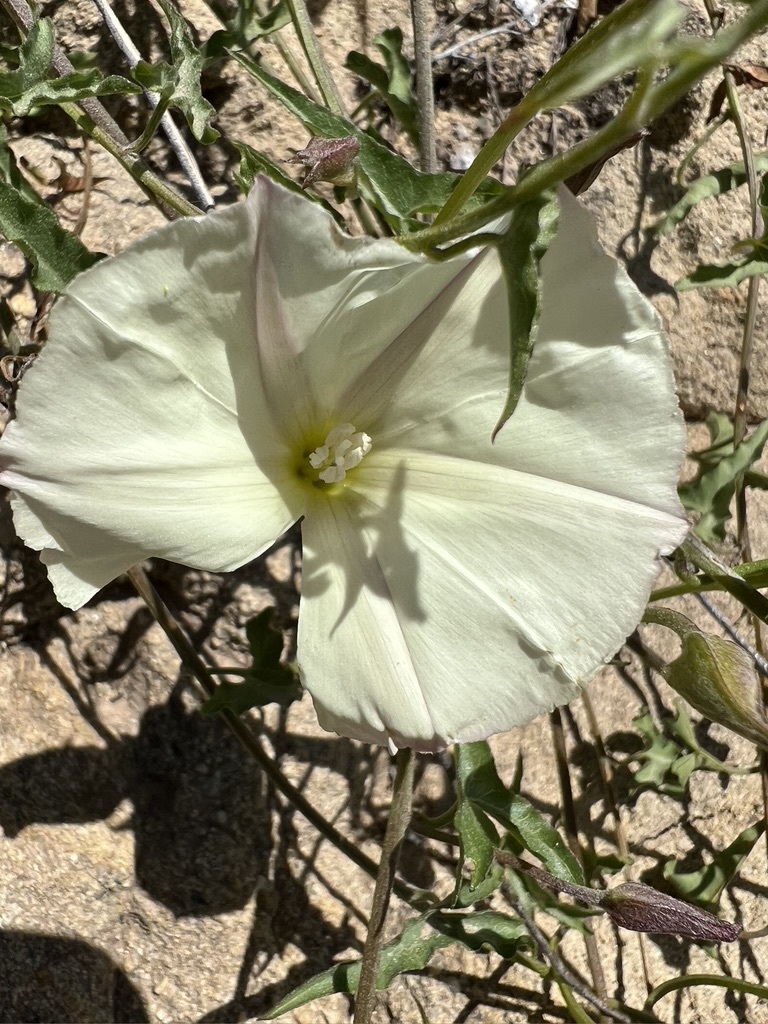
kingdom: Plantae
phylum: Tracheophyta
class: Magnoliopsida
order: Solanales
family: Convolvulaceae
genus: Calystegia
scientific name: Calystegia macrostegia
